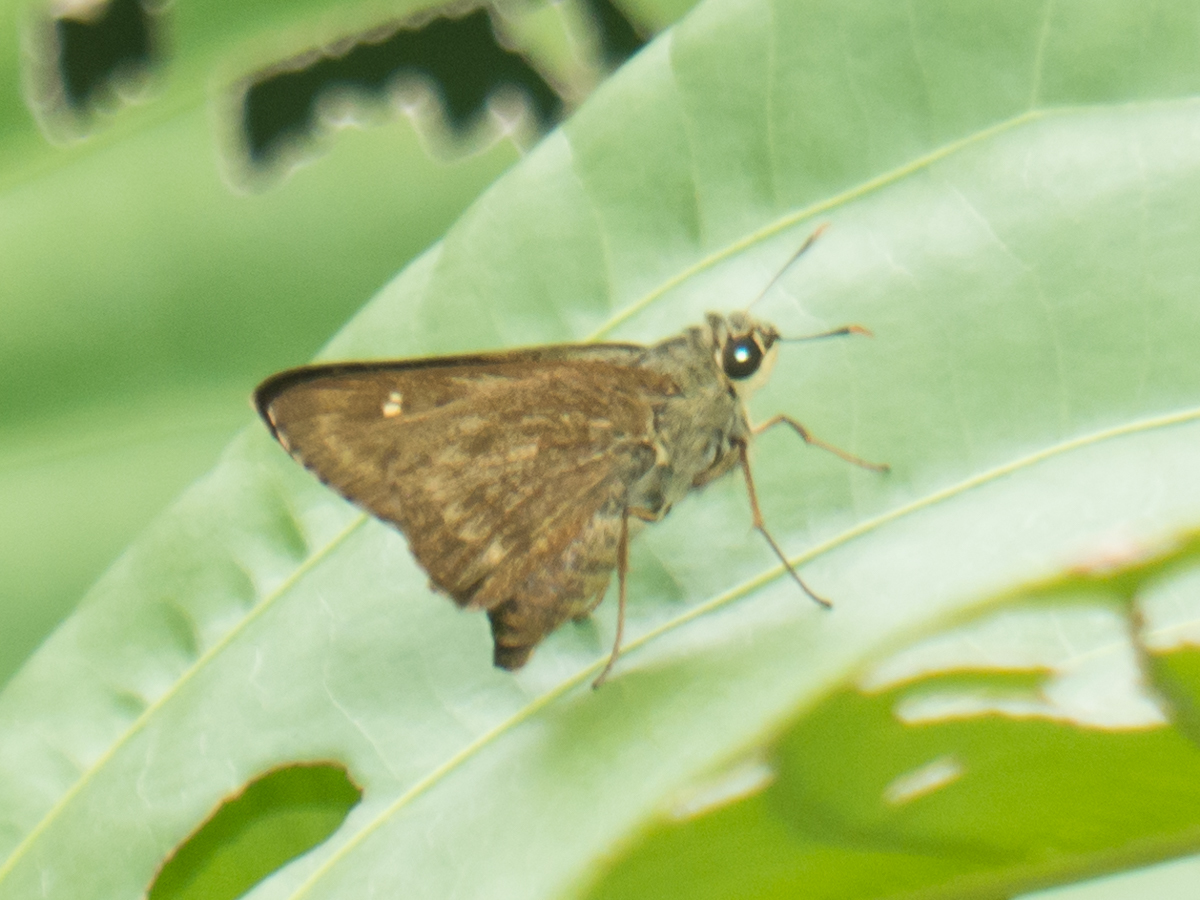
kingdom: Animalia
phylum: Arthropoda
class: Insecta
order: Lepidoptera
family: Hesperiidae
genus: Pithauria
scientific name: Pithauria stramineipennis
